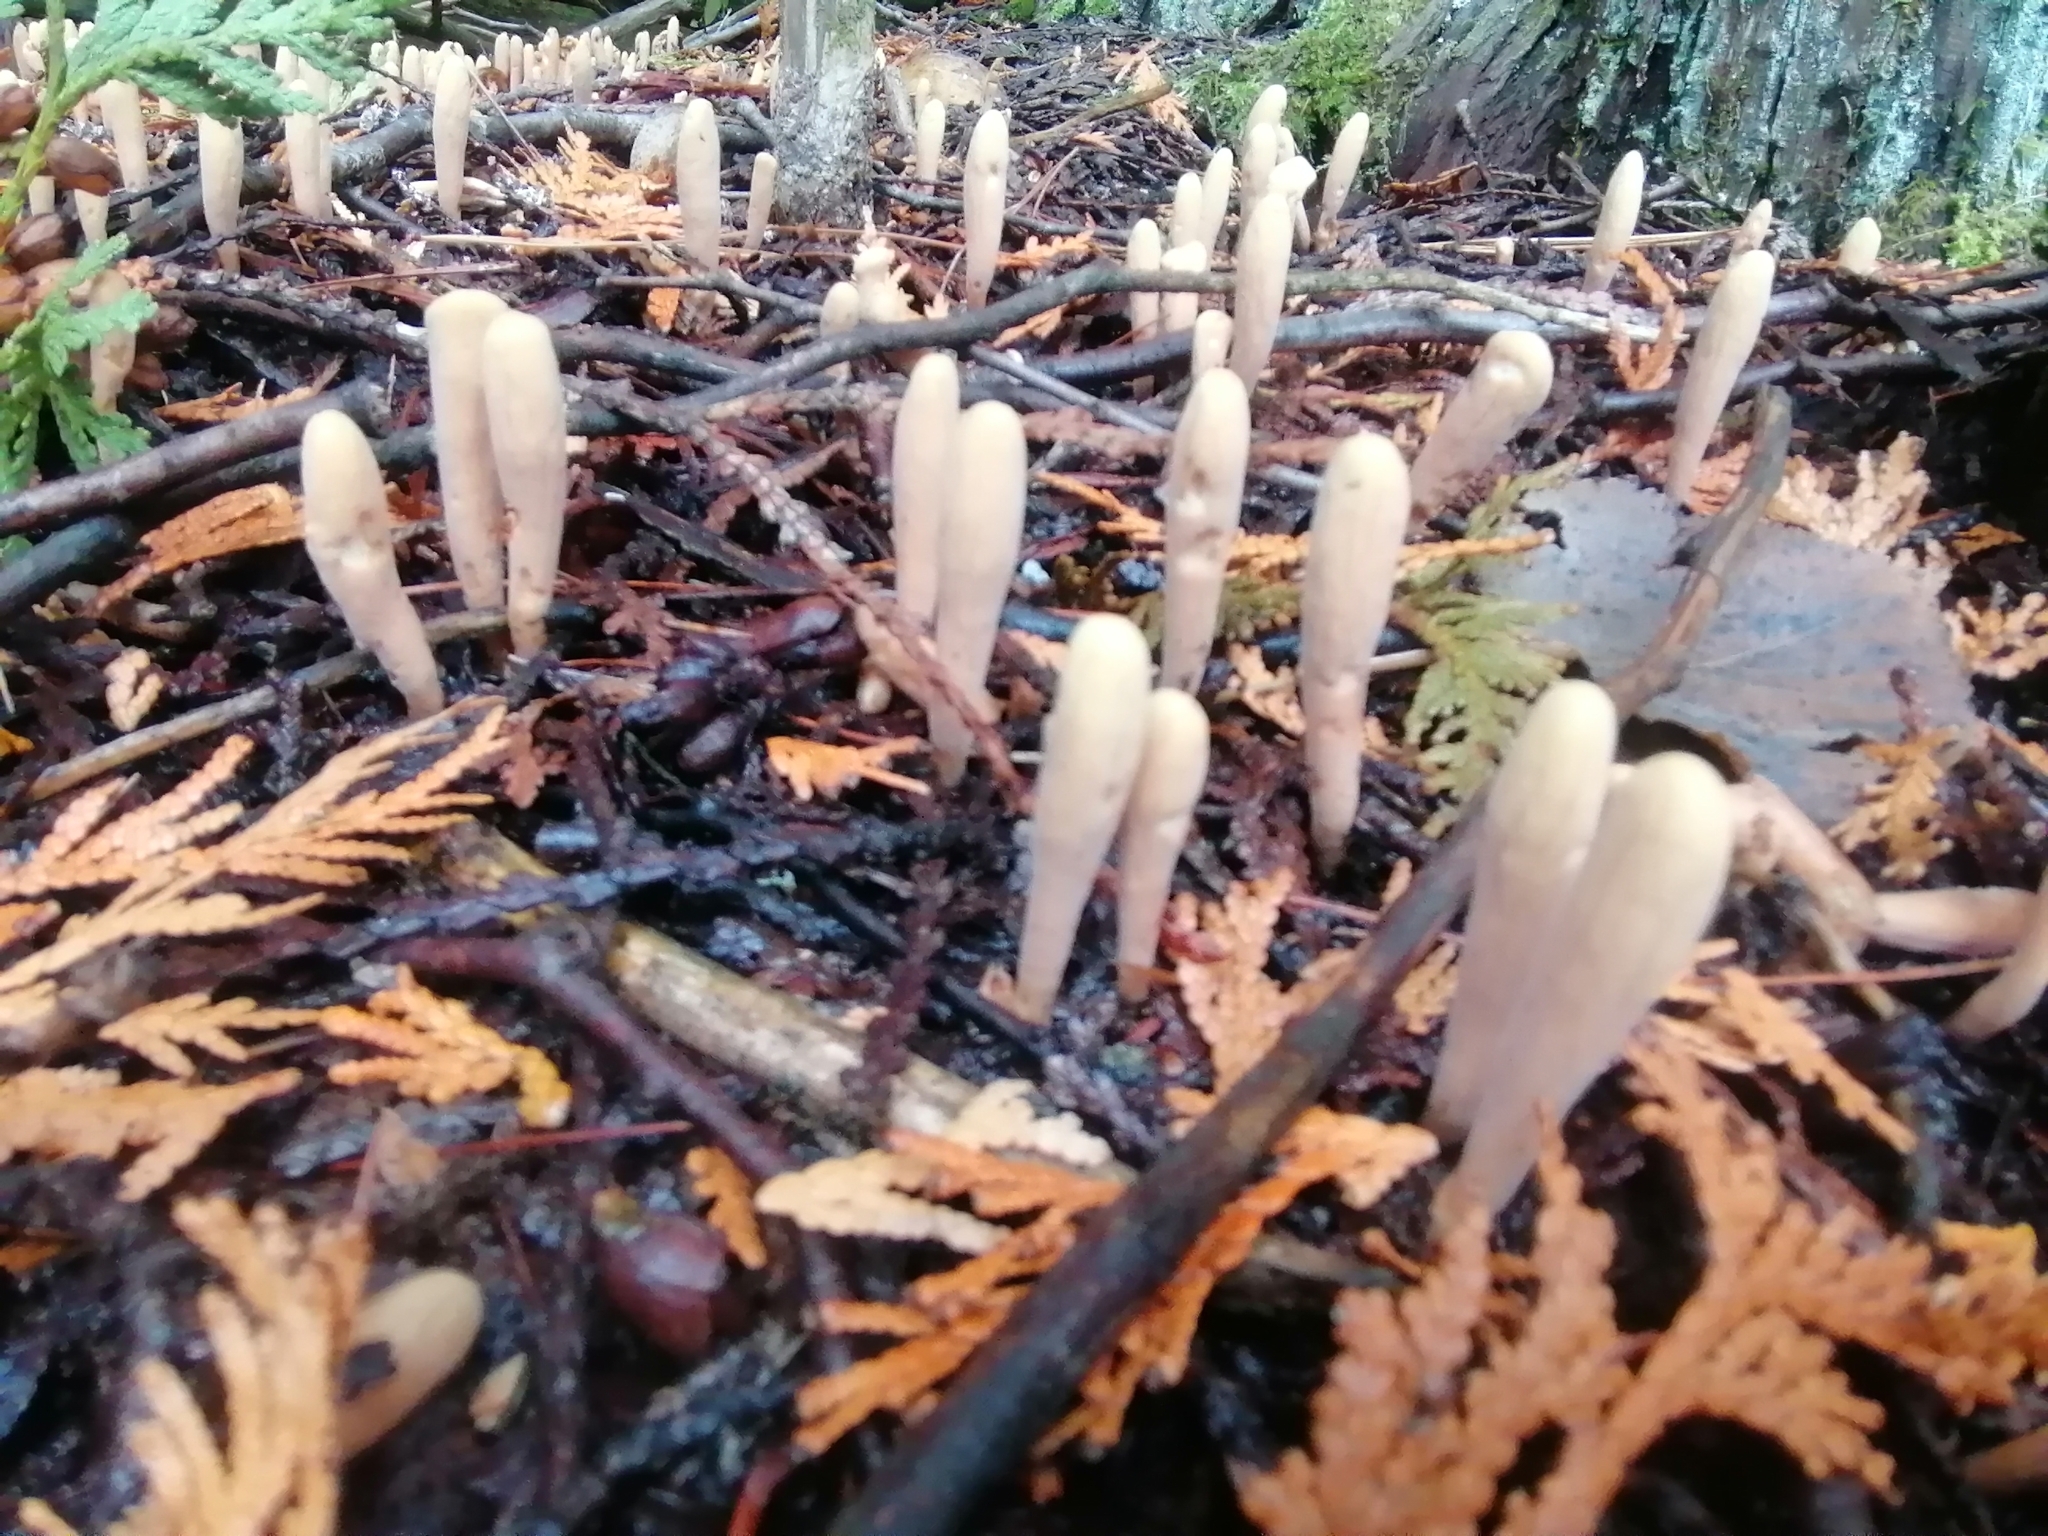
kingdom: Fungi
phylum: Basidiomycota
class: Agaricomycetes
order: Gomphales
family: Clavariadelphaceae
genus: Clavariadelphus
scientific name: Clavariadelphus ligula
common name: Ochre club
